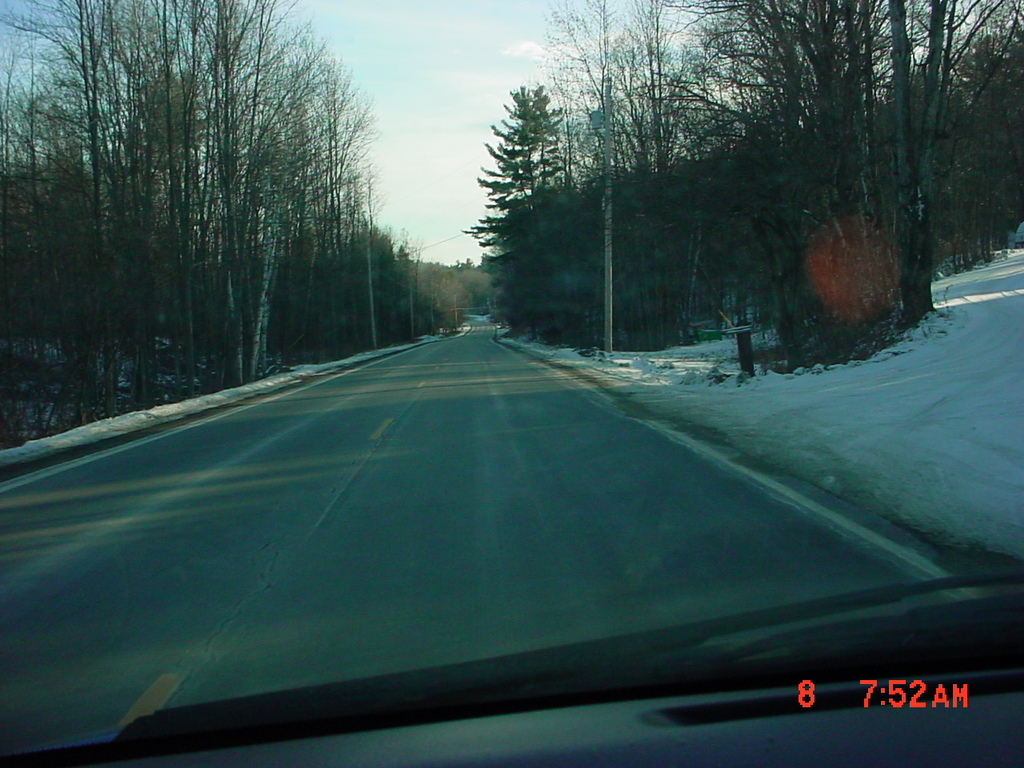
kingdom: Plantae
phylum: Tracheophyta
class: Pinopsida
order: Pinales
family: Pinaceae
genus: Pinus
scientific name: Pinus strobus
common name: Weymouth pine
